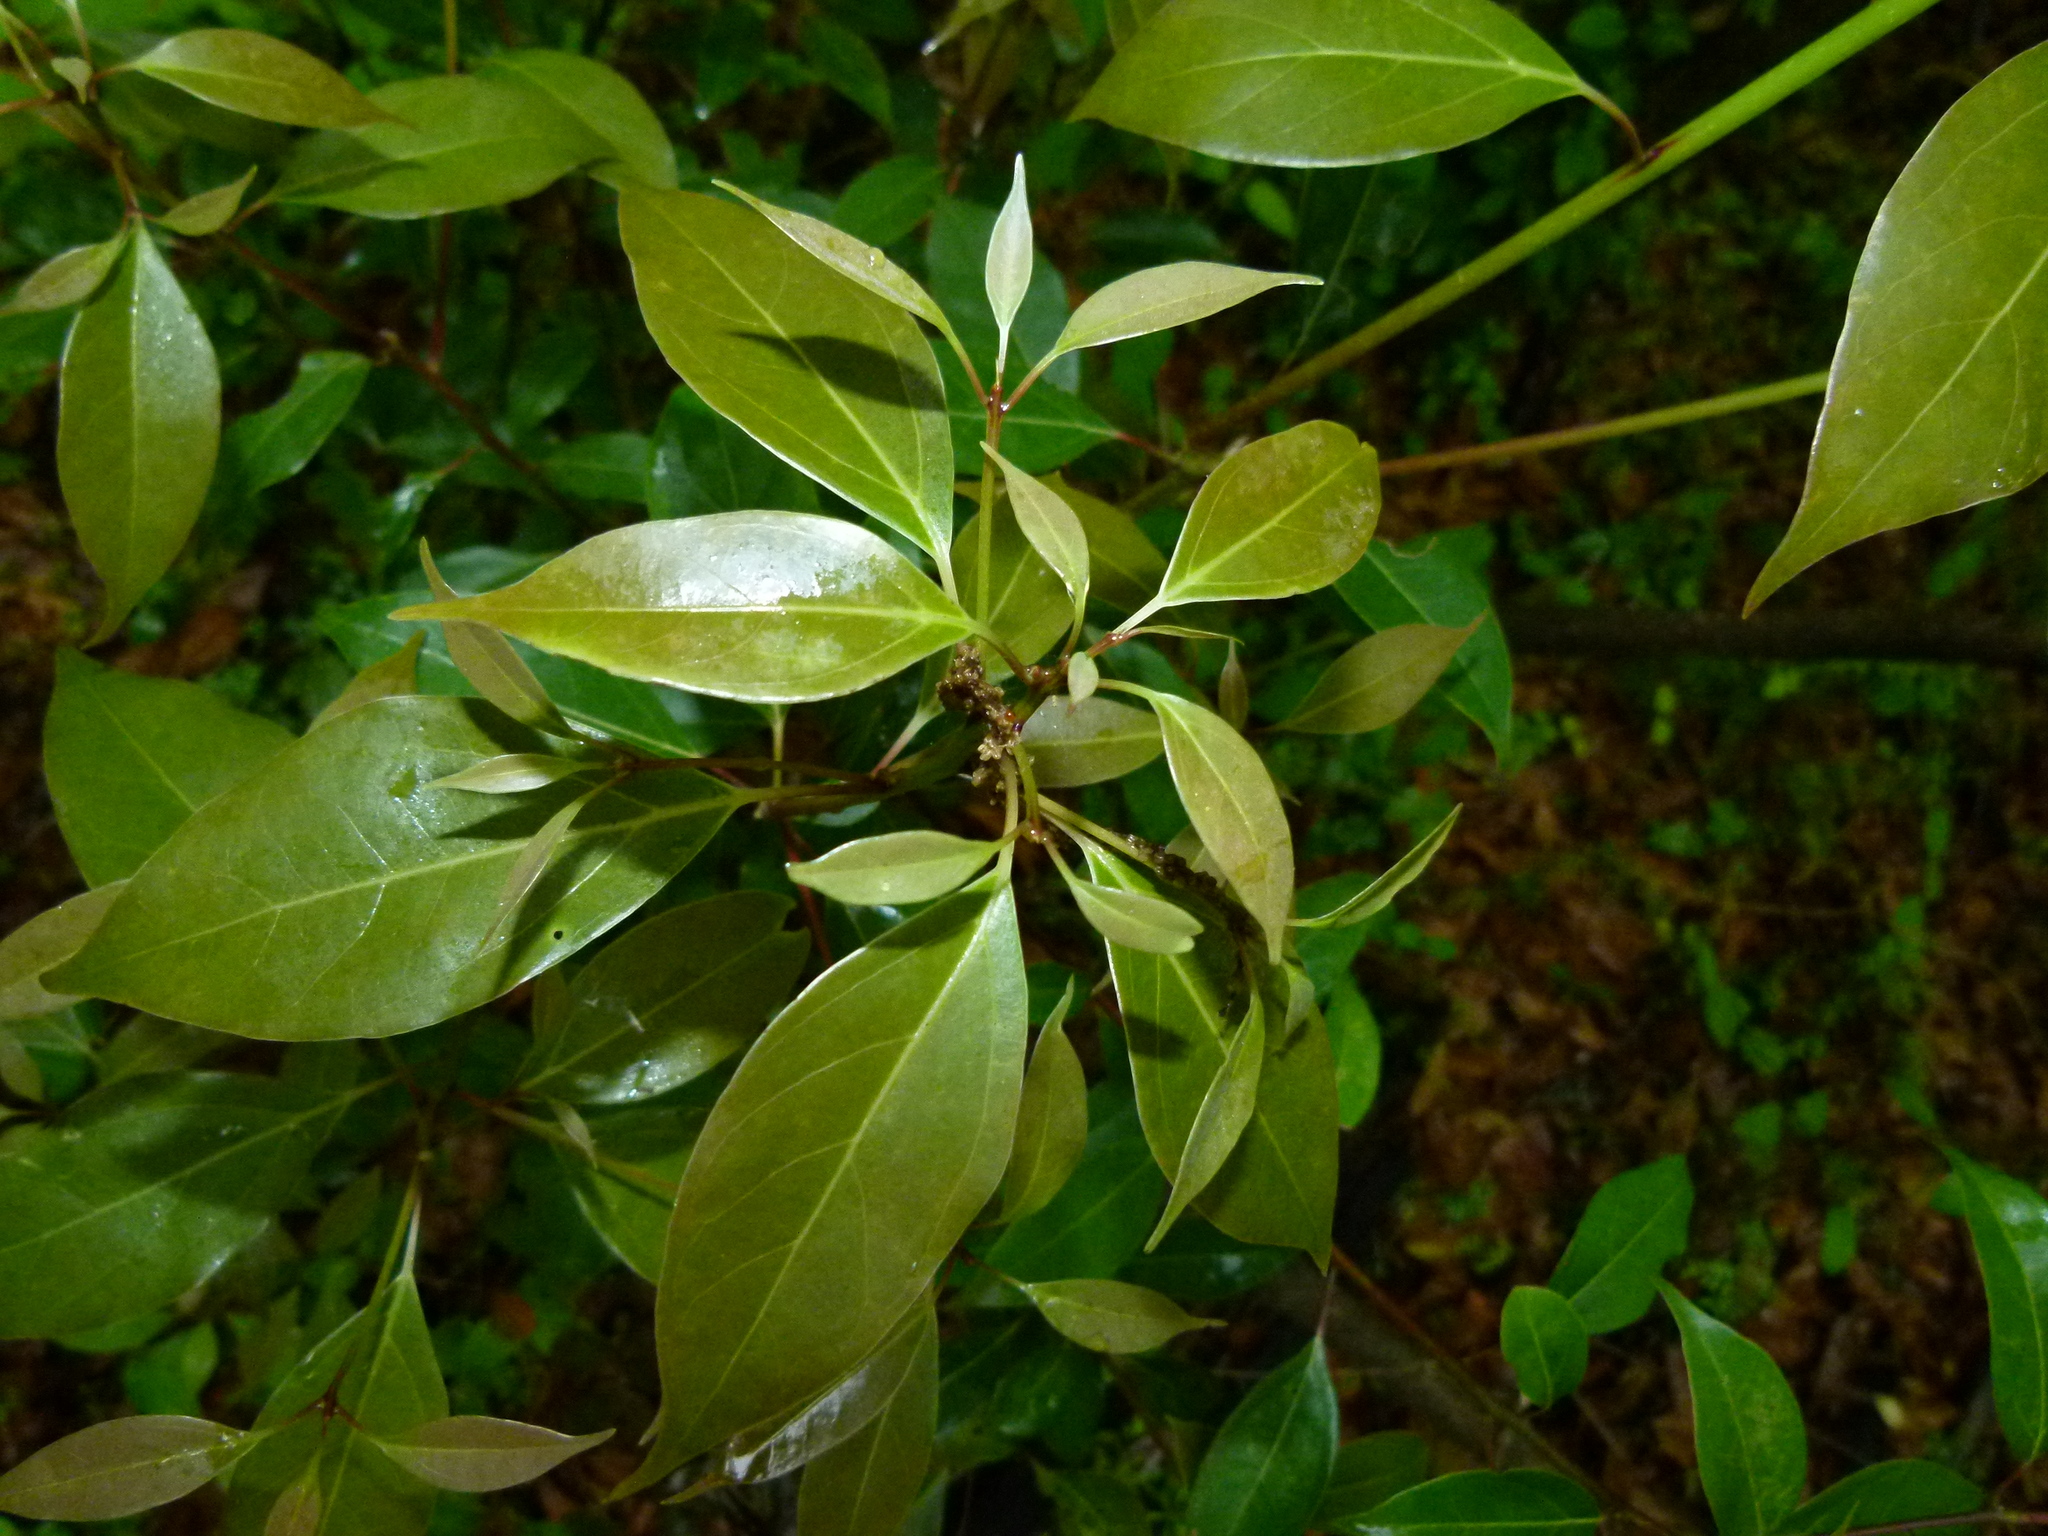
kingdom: Plantae
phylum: Tracheophyta
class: Magnoliopsida
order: Laurales
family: Lauraceae
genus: Cinnamomum
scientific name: Cinnamomum camphora
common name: Camphortree
